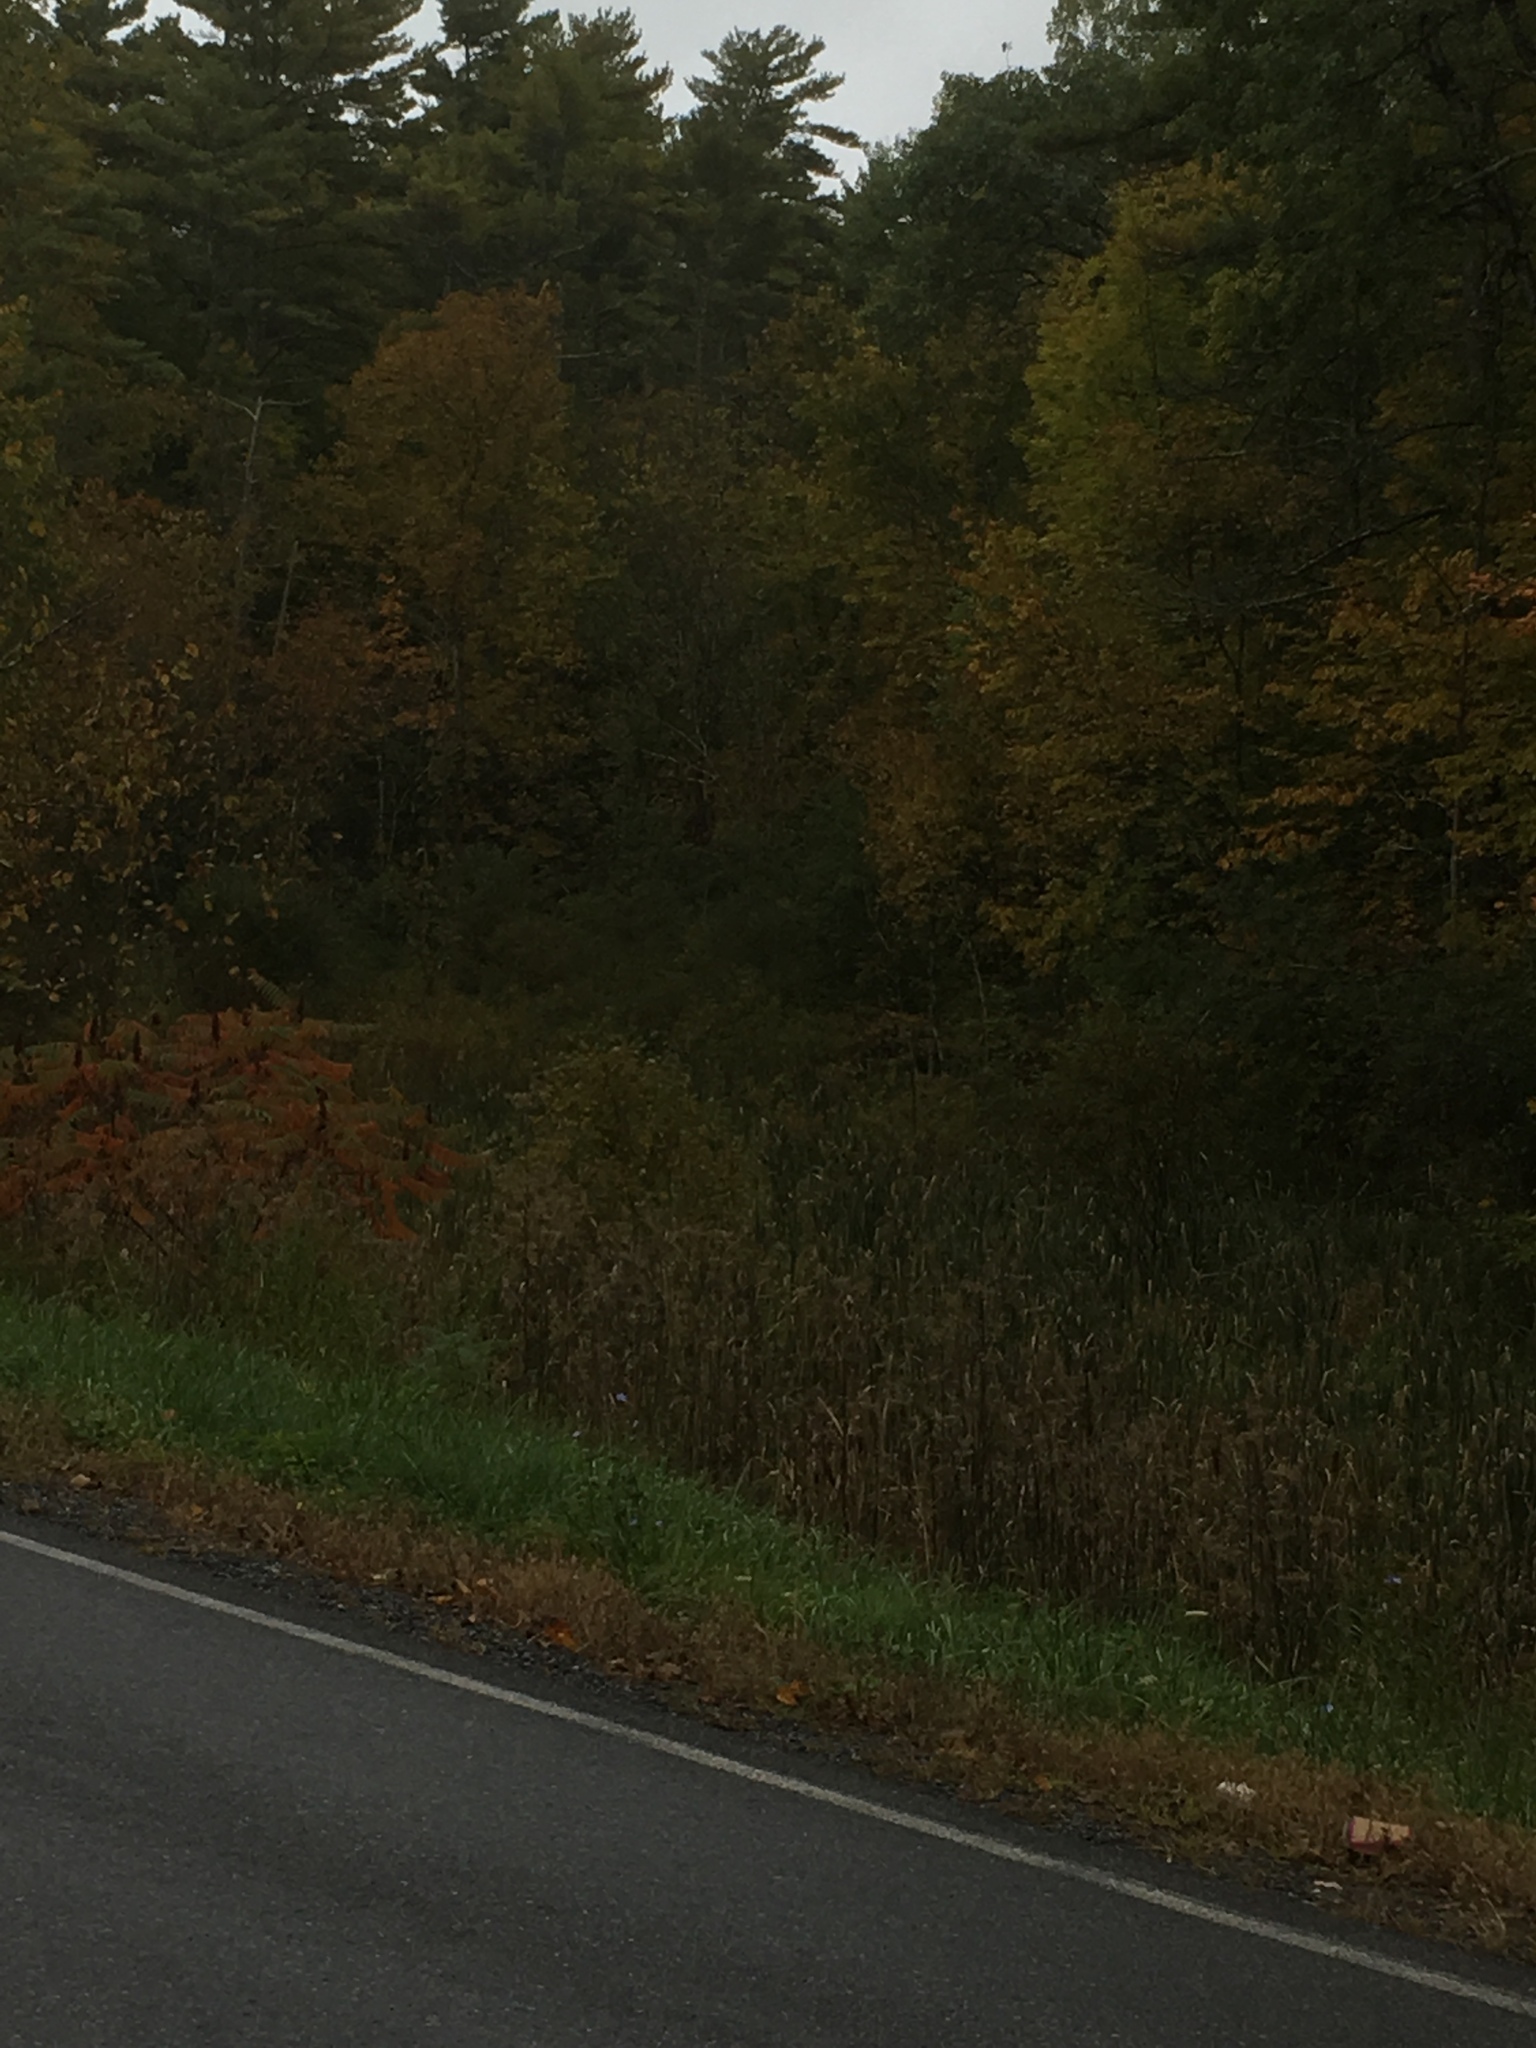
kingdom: Plantae
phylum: Tracheophyta
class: Liliopsida
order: Poales
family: Typhaceae
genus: Typha
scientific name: Typha
